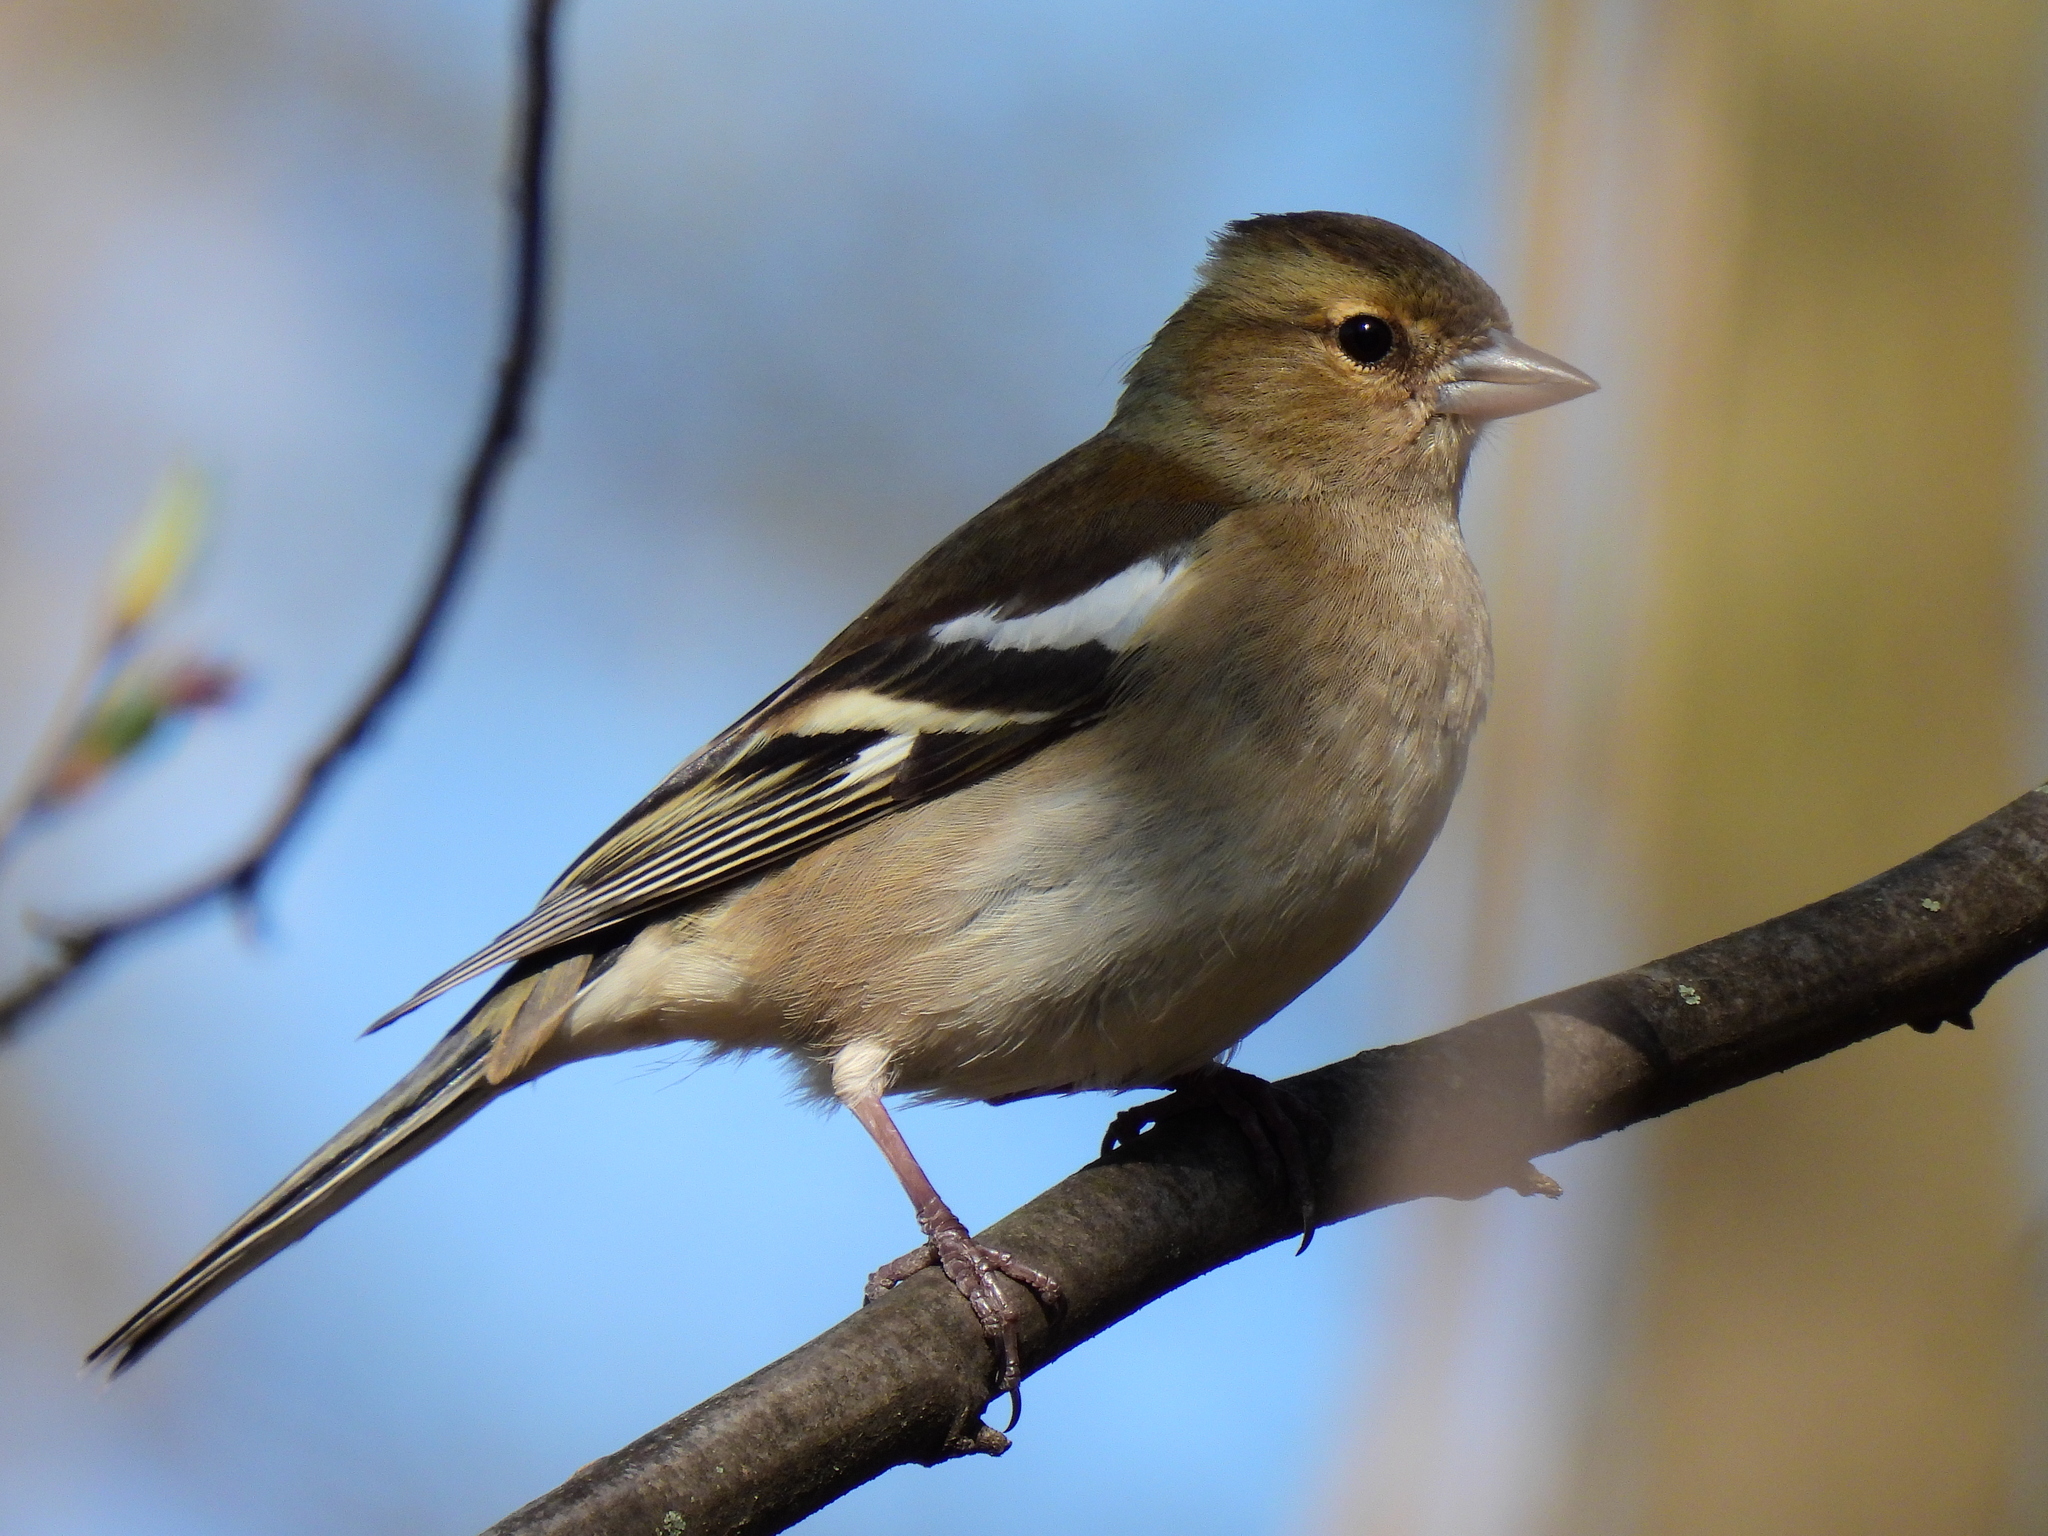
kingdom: Animalia
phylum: Chordata
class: Aves
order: Passeriformes
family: Fringillidae
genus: Fringilla
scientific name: Fringilla coelebs
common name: Common chaffinch
